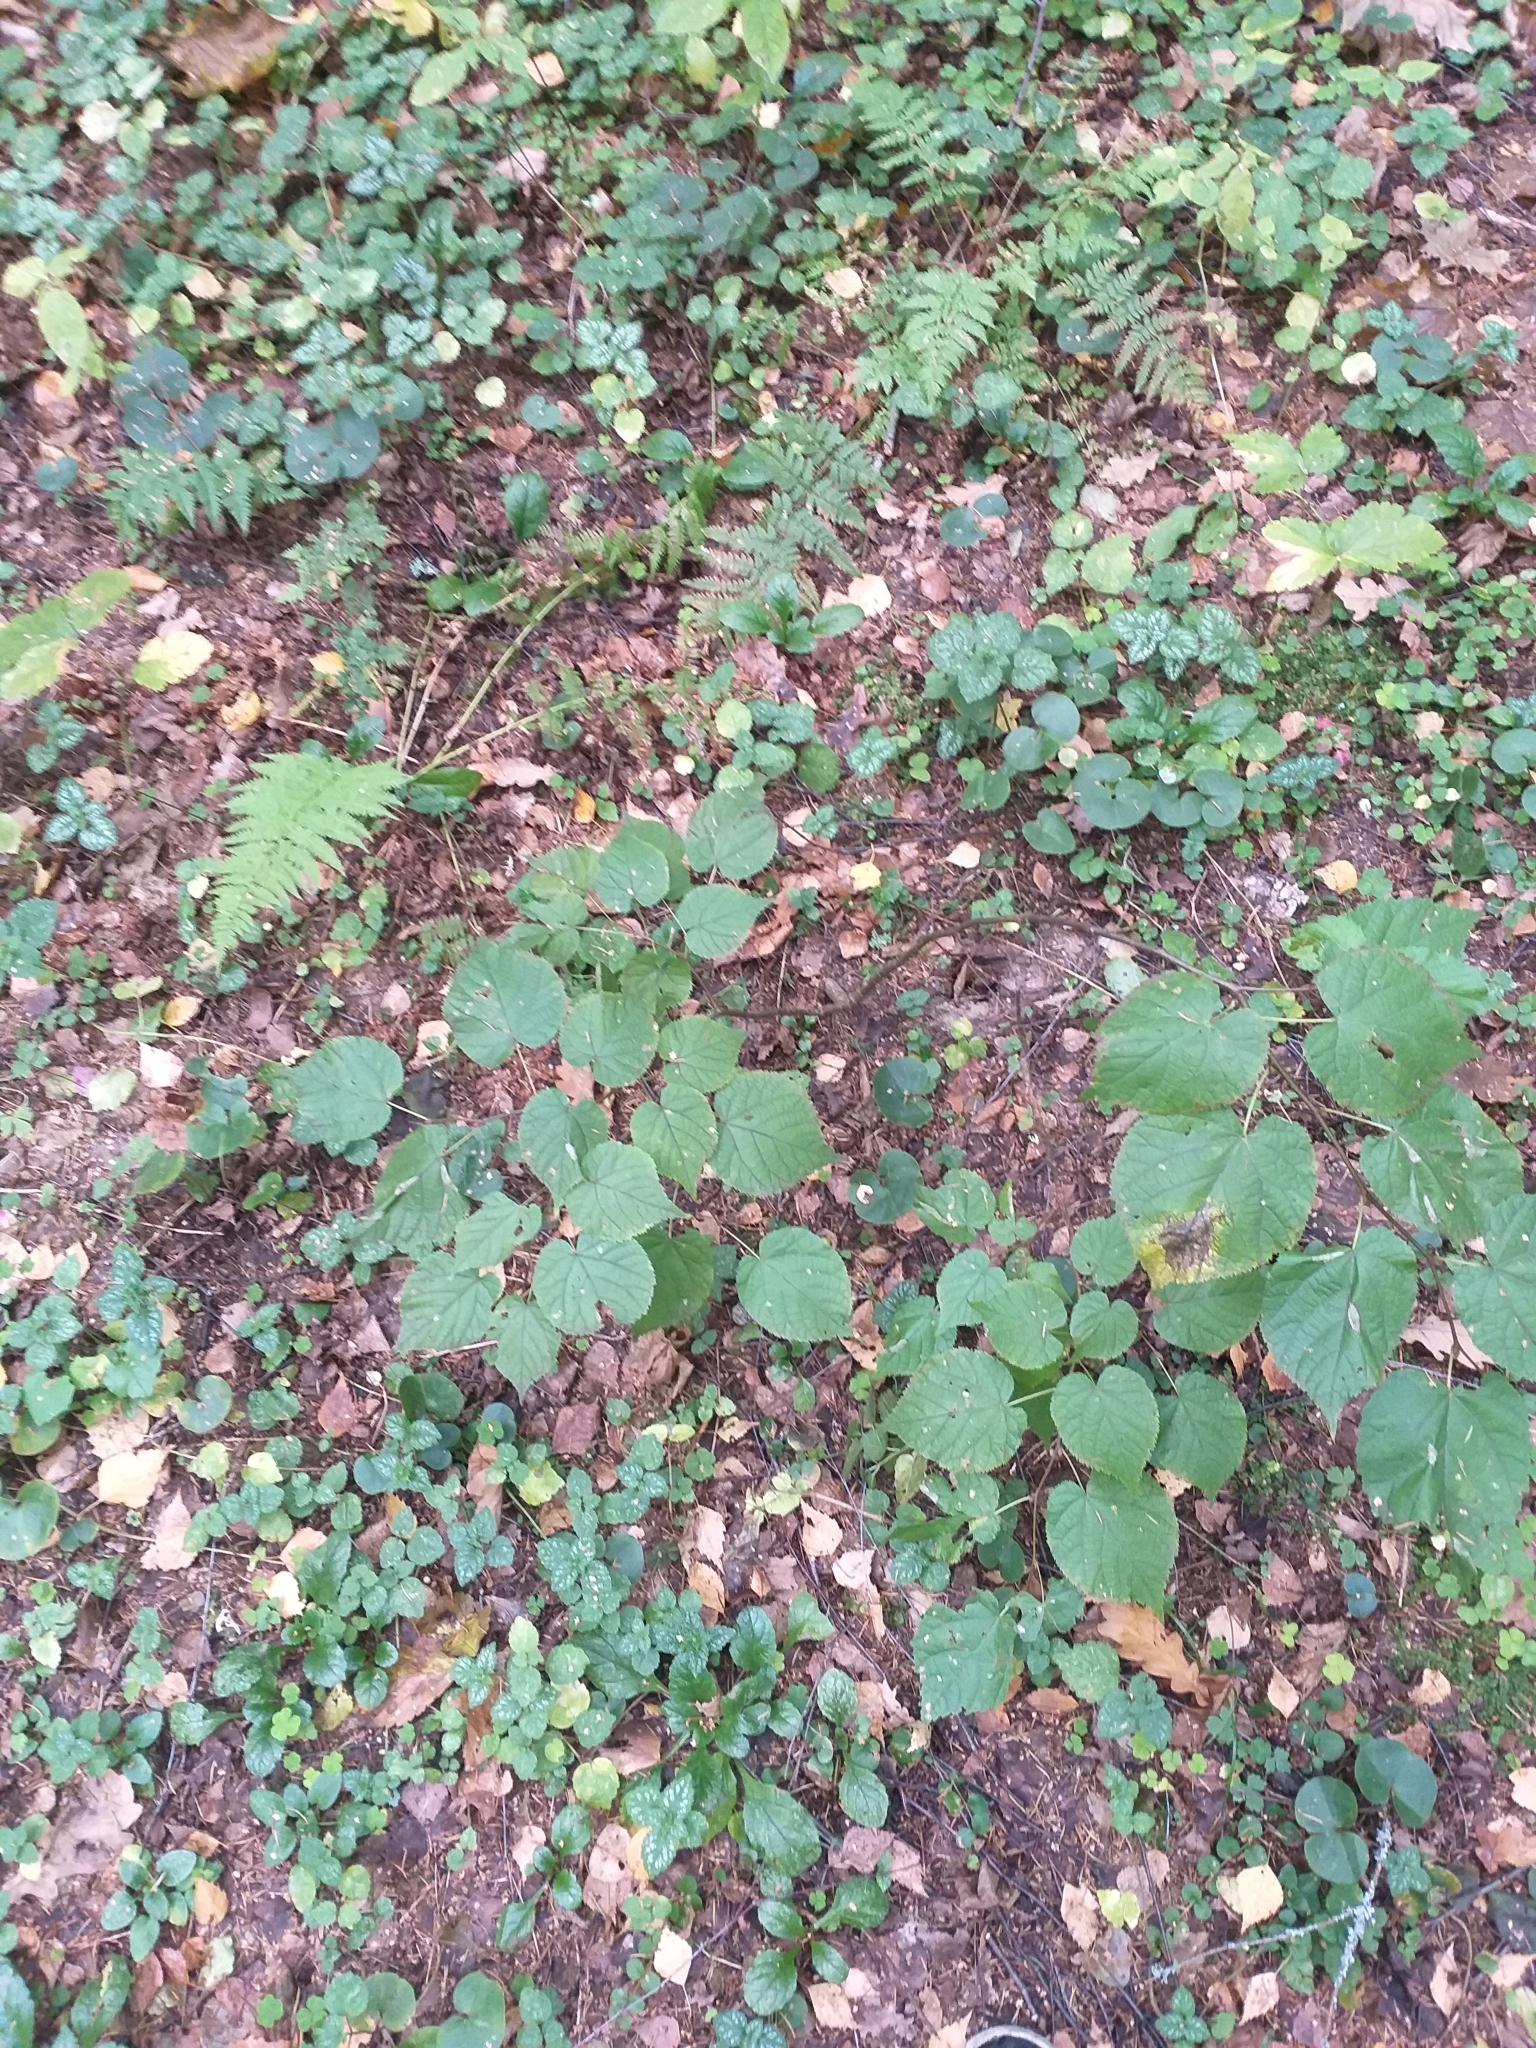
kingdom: Plantae
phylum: Tracheophyta
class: Magnoliopsida
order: Malvales
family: Malvaceae
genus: Tilia
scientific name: Tilia cordata
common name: Small-leaved lime
